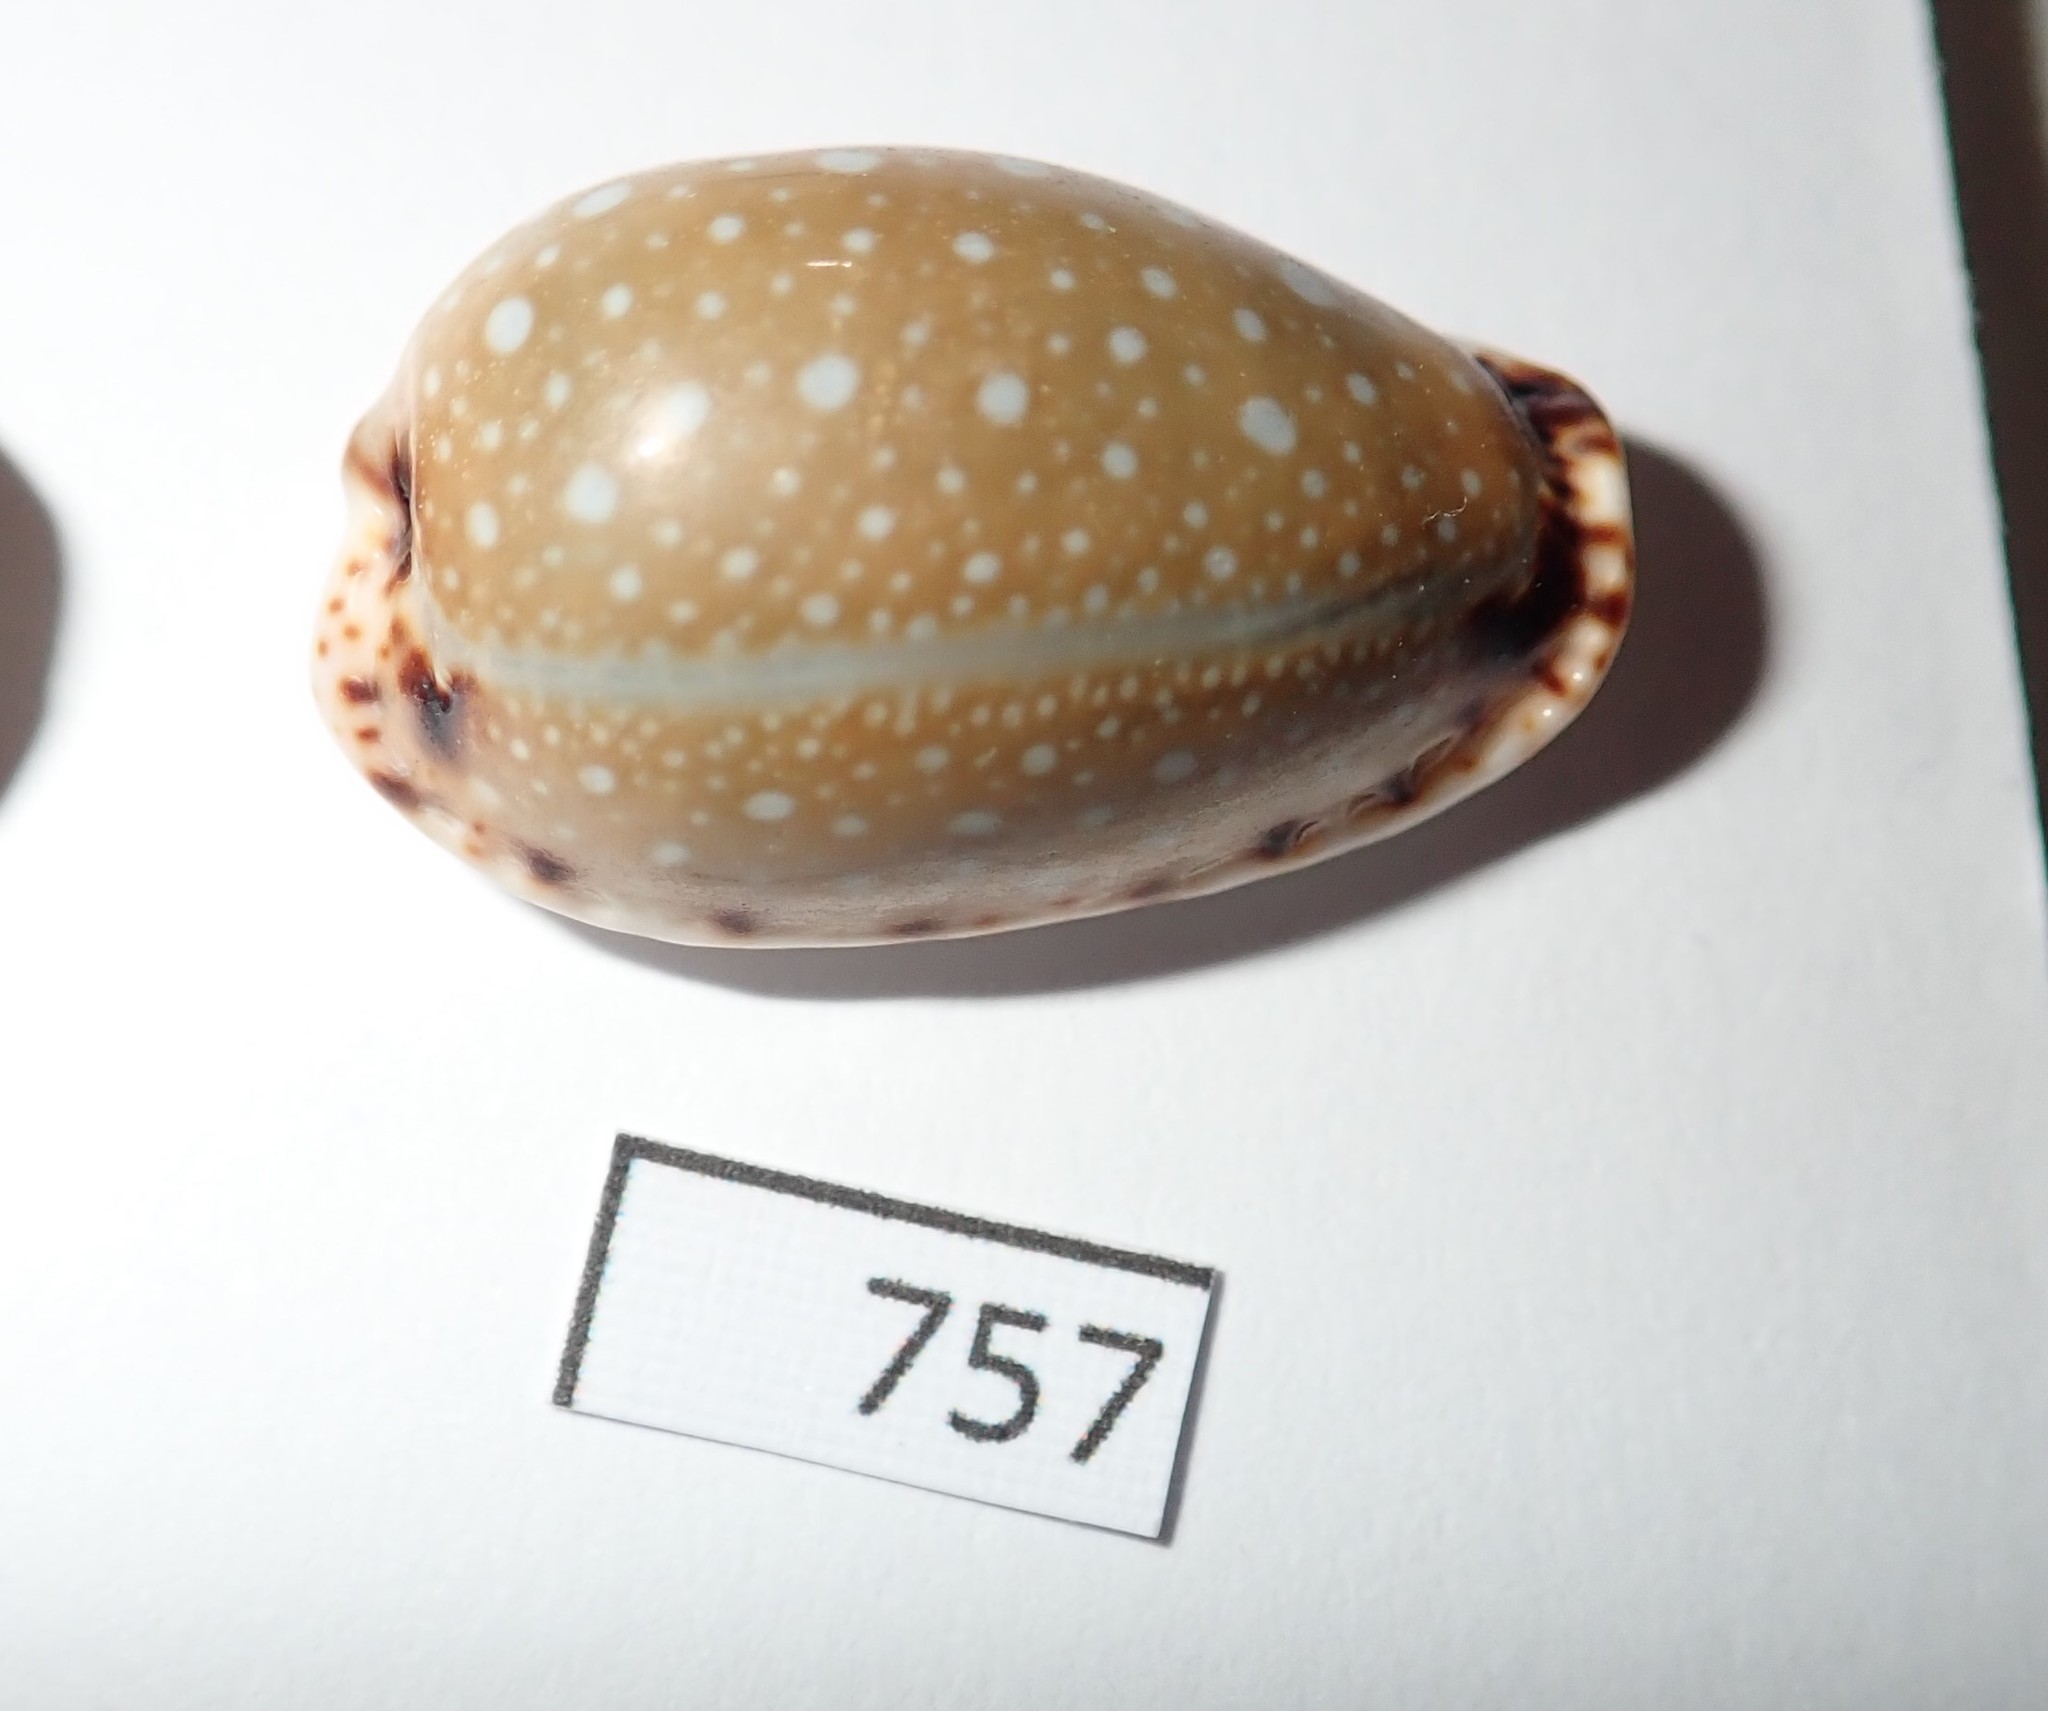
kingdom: Animalia
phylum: Mollusca
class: Gastropoda
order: Littorinimorpha
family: Cypraeidae
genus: Naria
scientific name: Naria labrolineata
